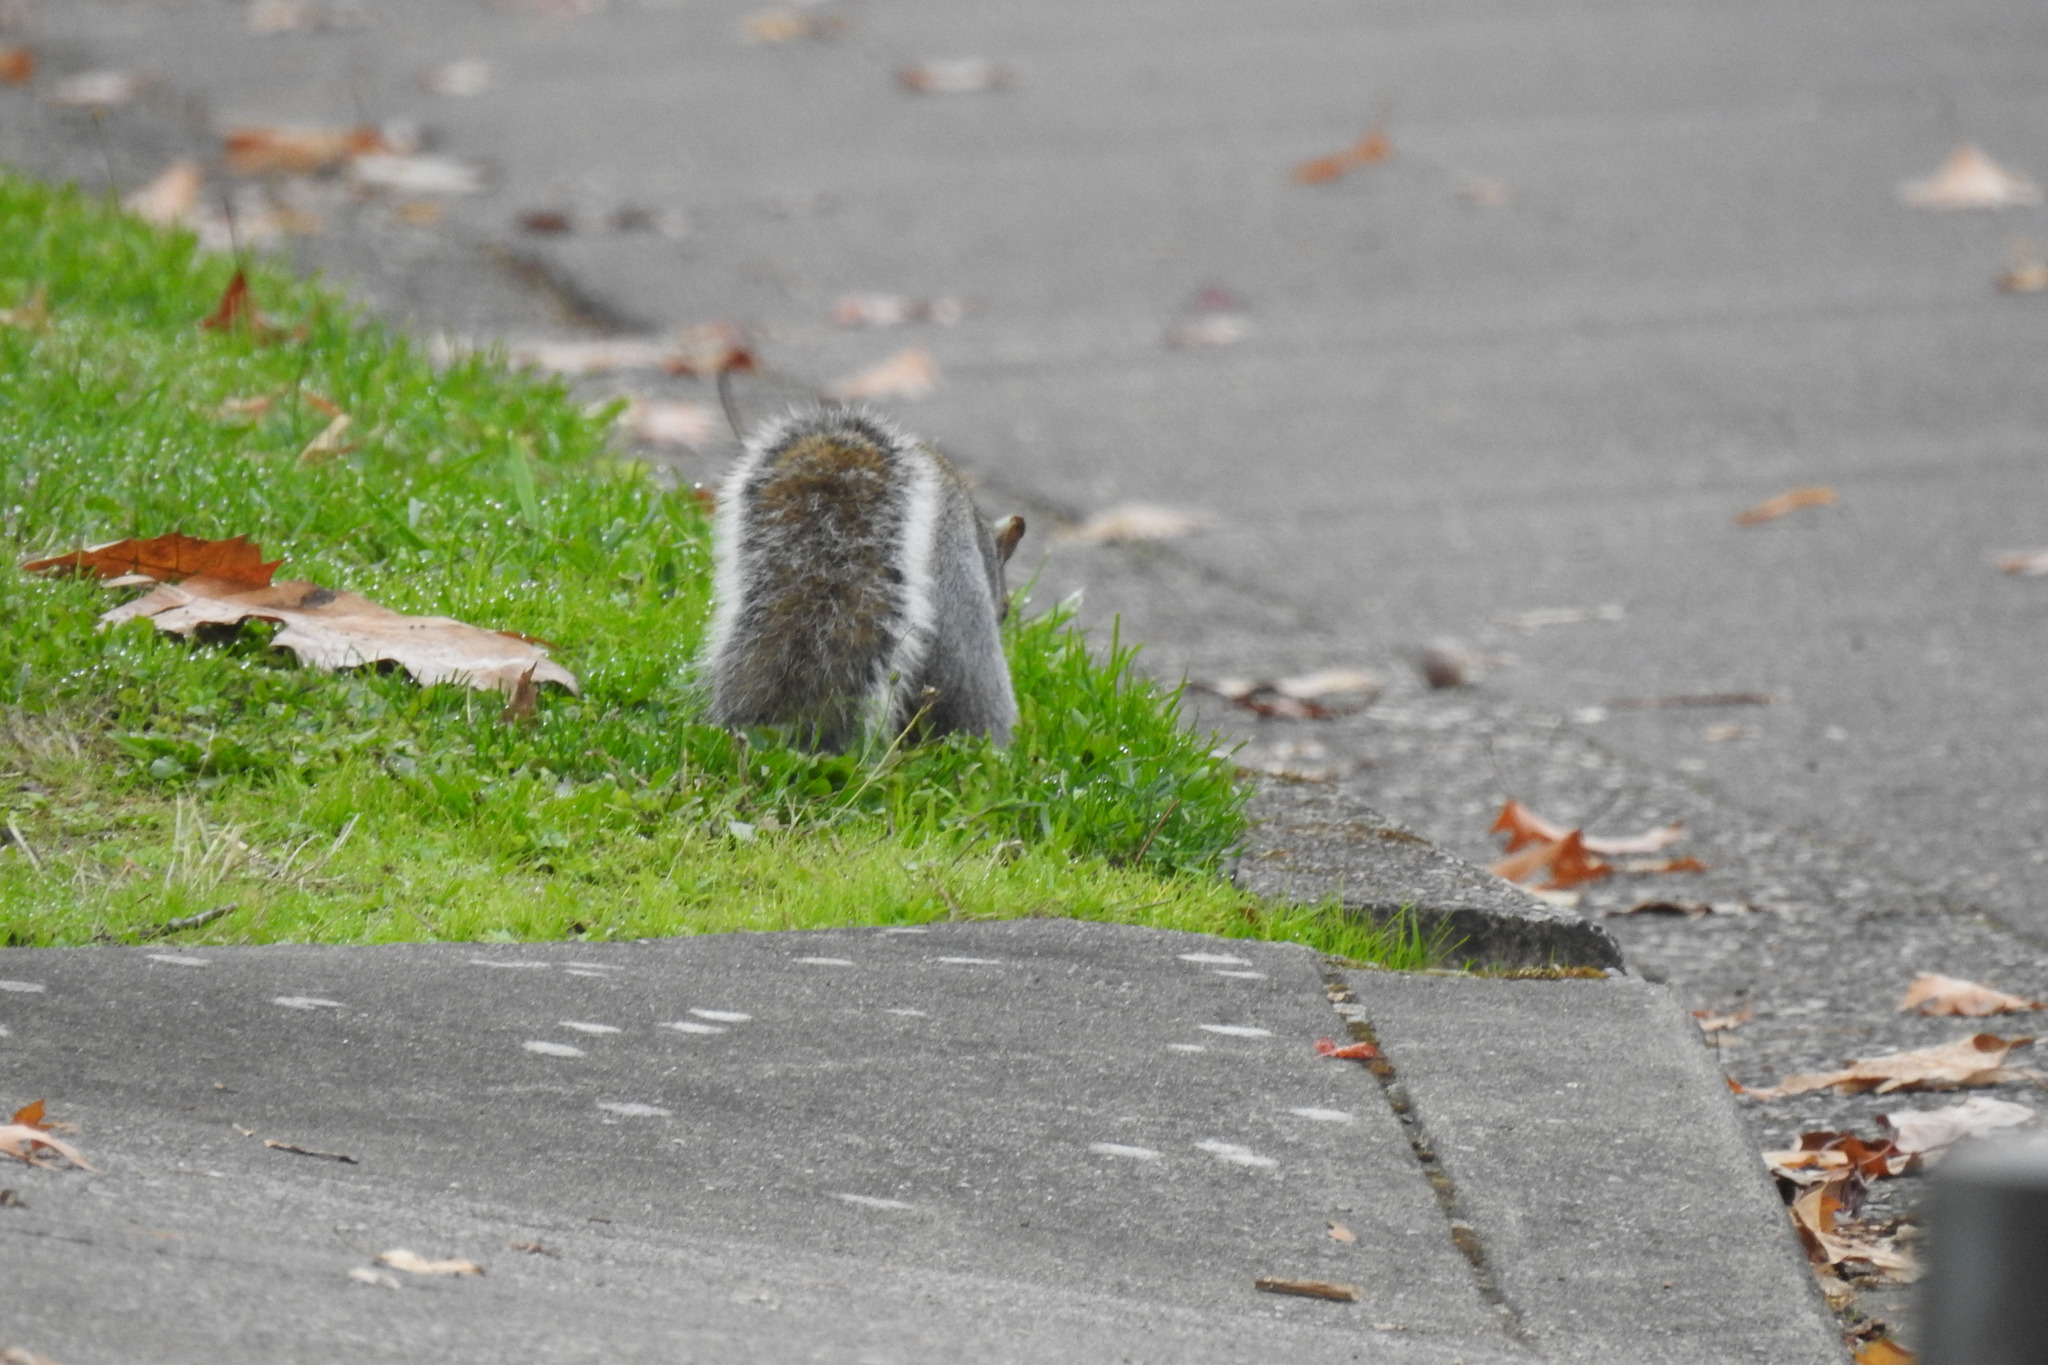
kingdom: Animalia
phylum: Chordata
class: Mammalia
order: Rodentia
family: Sciuridae
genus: Sciurus
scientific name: Sciurus carolinensis
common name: Eastern gray squirrel
